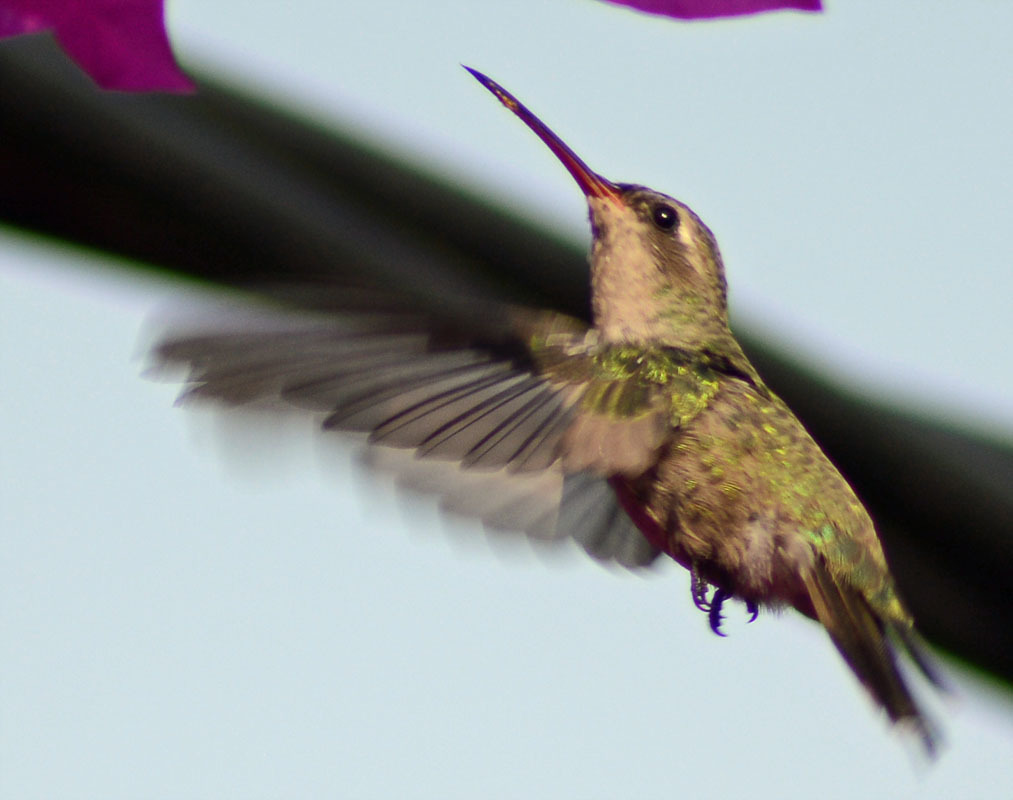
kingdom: Animalia
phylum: Chordata
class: Aves
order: Apodiformes
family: Trochilidae
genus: Cynanthus
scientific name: Cynanthus latirostris
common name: Broad-billed hummingbird
